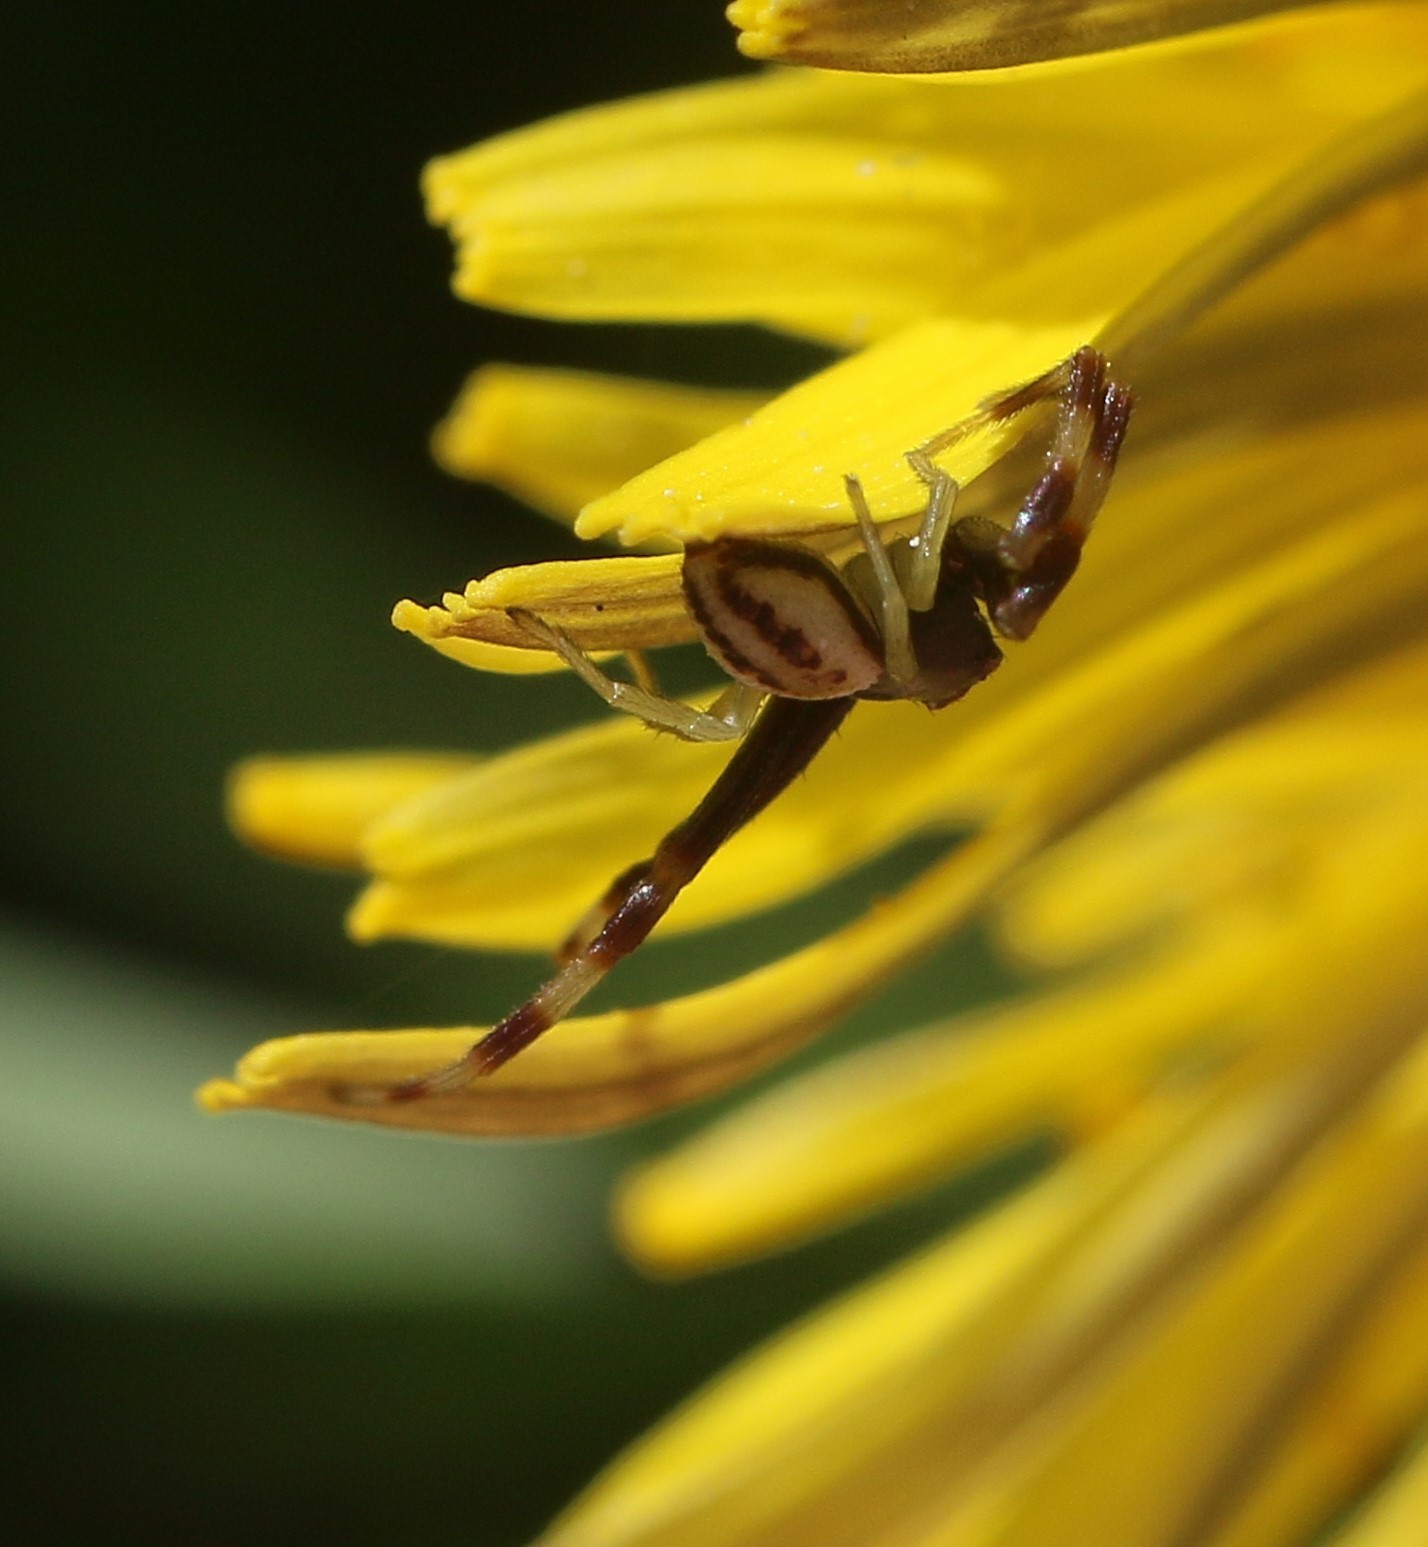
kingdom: Animalia
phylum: Arthropoda
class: Arachnida
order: Araneae
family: Thomisidae
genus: Misumena
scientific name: Misumena vatia
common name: Goldenrod crab spider
